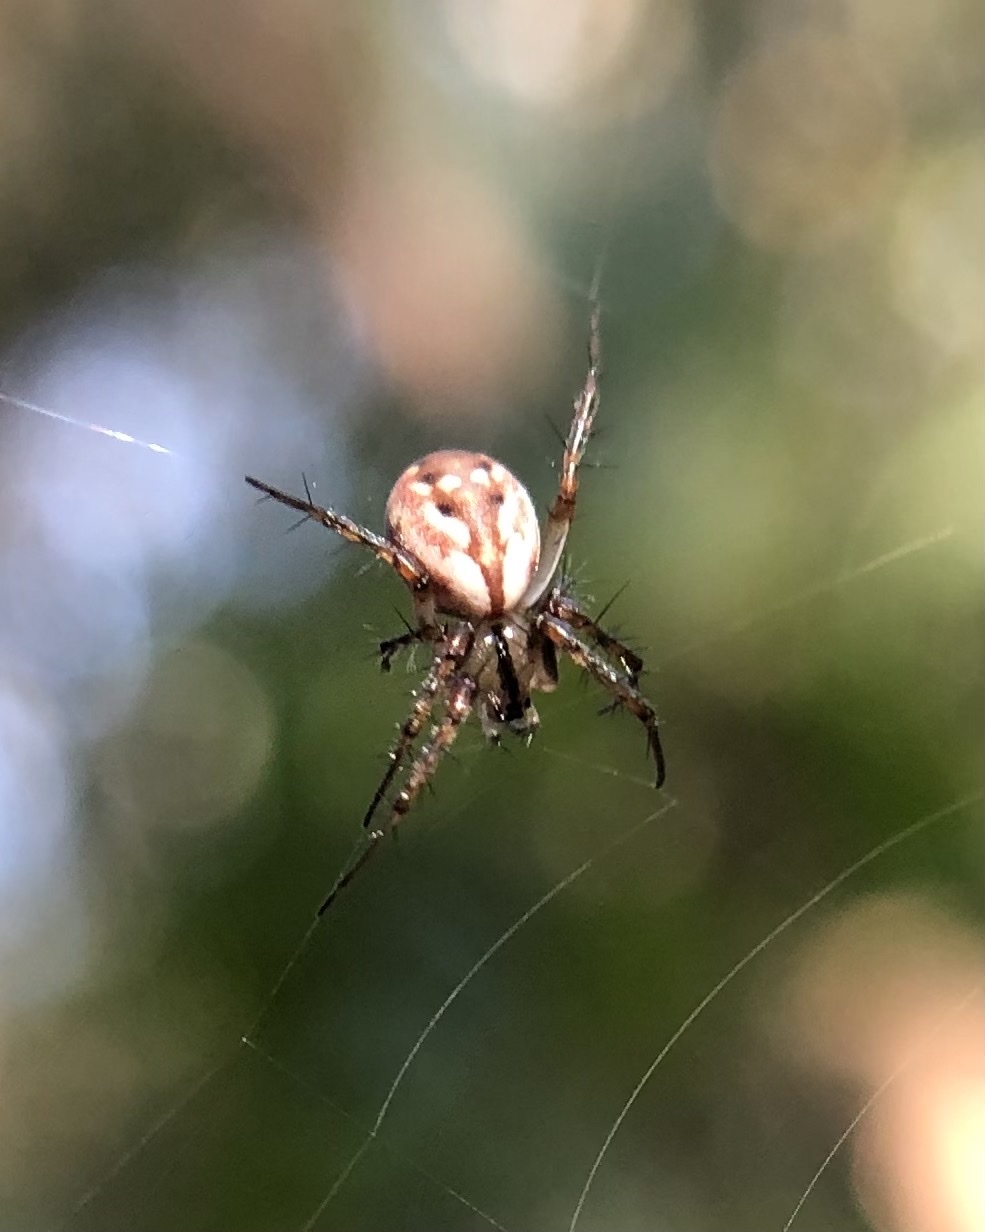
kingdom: Animalia
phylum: Arthropoda
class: Arachnida
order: Araneae
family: Araneidae
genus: Mangora
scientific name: Mangora placida
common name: Tuft-legged orbweaver
